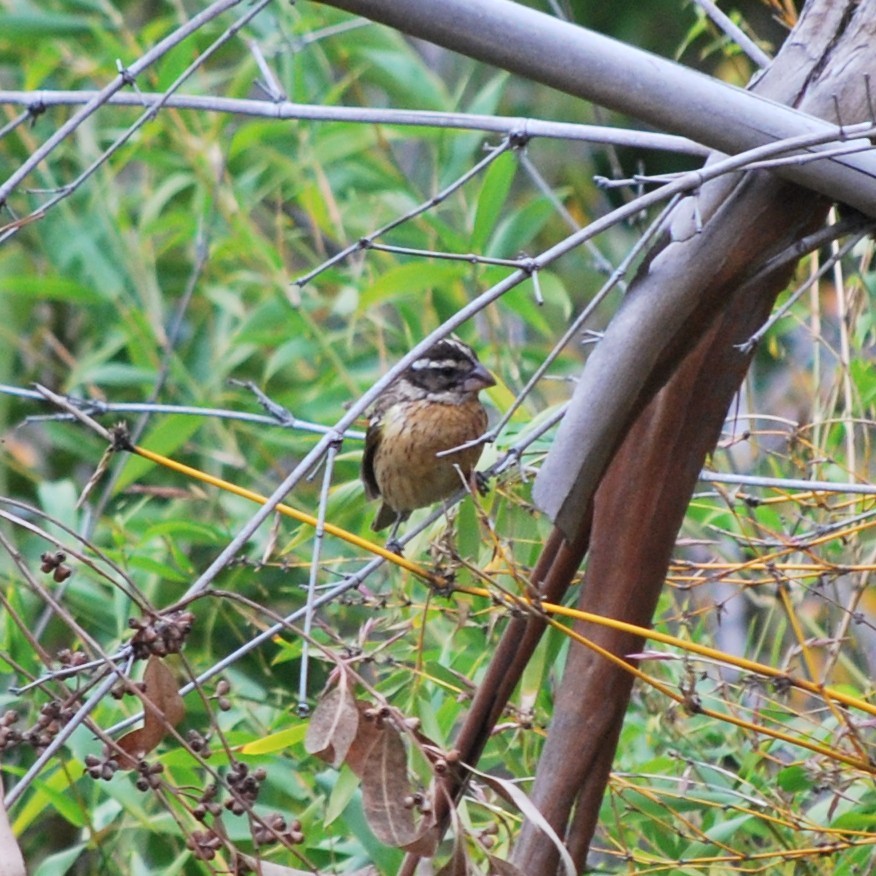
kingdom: Animalia
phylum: Chordata
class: Aves
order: Passeriformes
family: Cardinalidae
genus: Pheucticus
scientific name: Pheucticus melanocephalus
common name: Black-headed grosbeak
